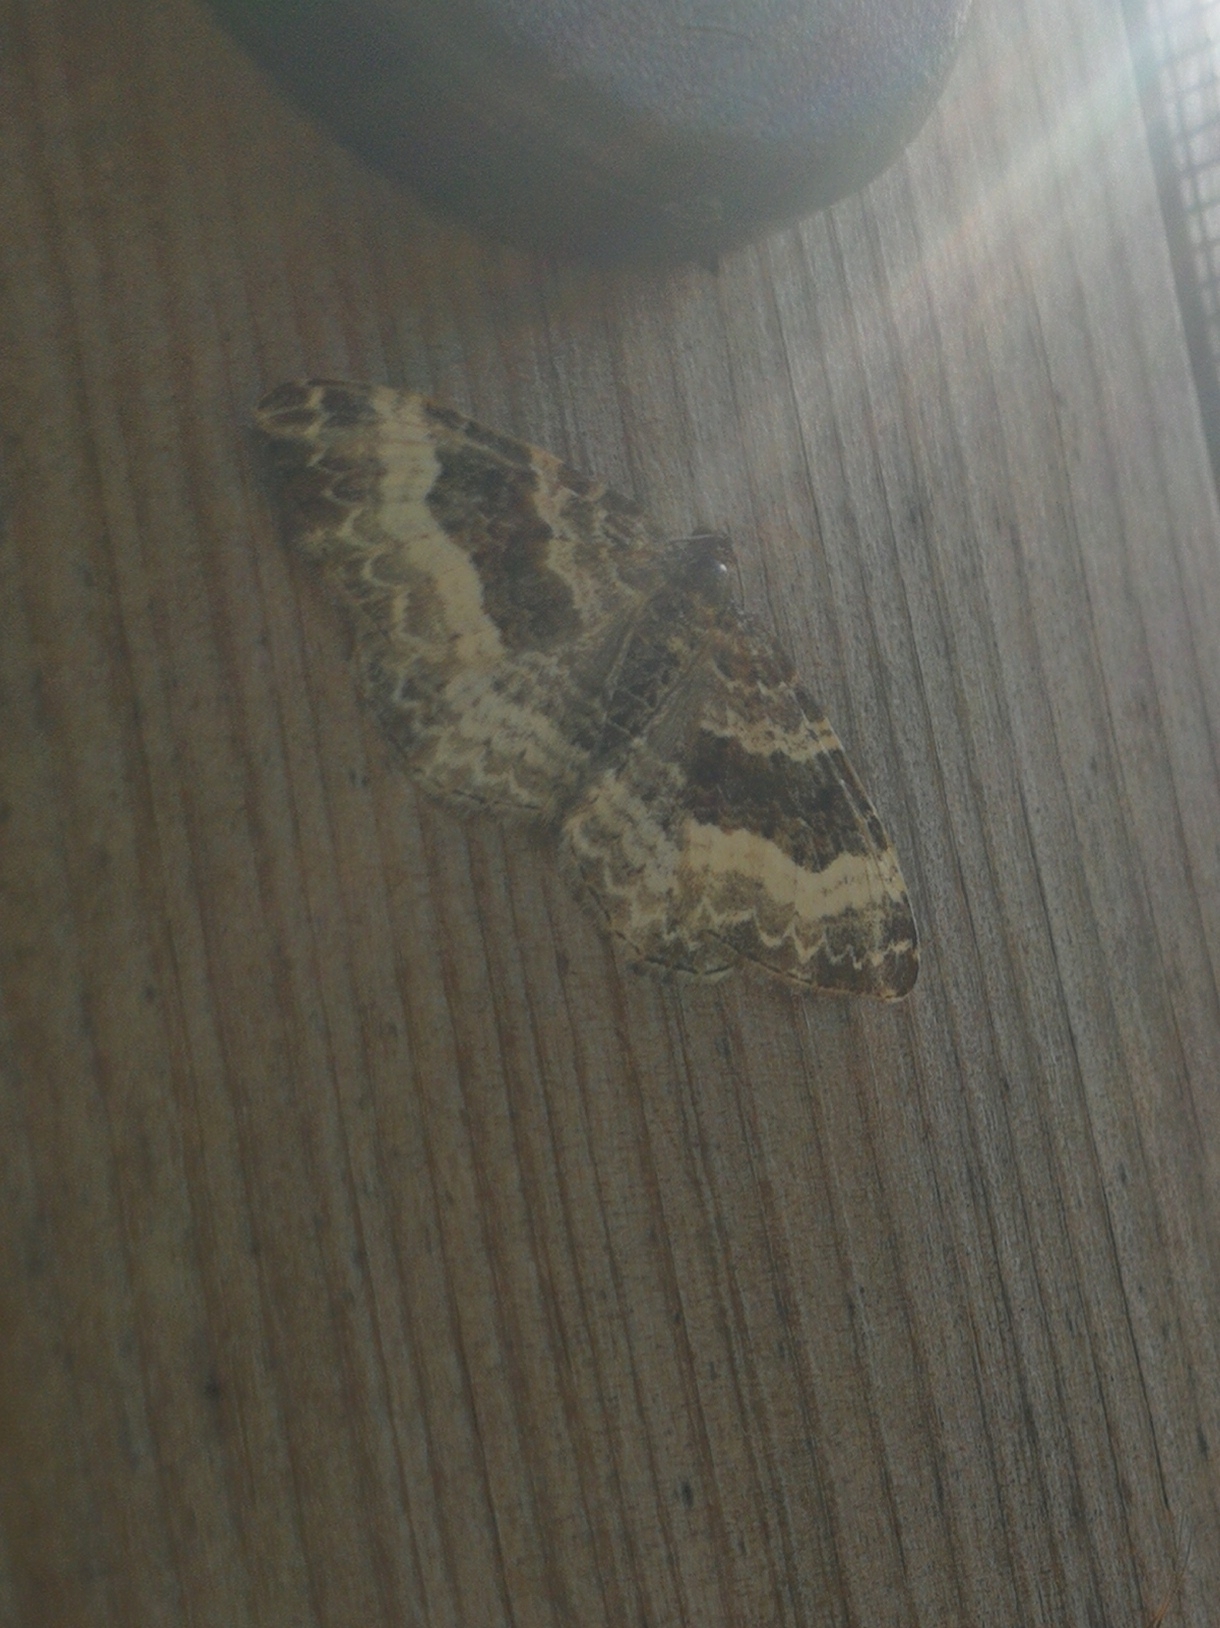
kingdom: Animalia
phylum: Arthropoda
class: Insecta
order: Lepidoptera
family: Geometridae
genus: Epirrhoe
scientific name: Epirrhoe alternata
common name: Common carpet
